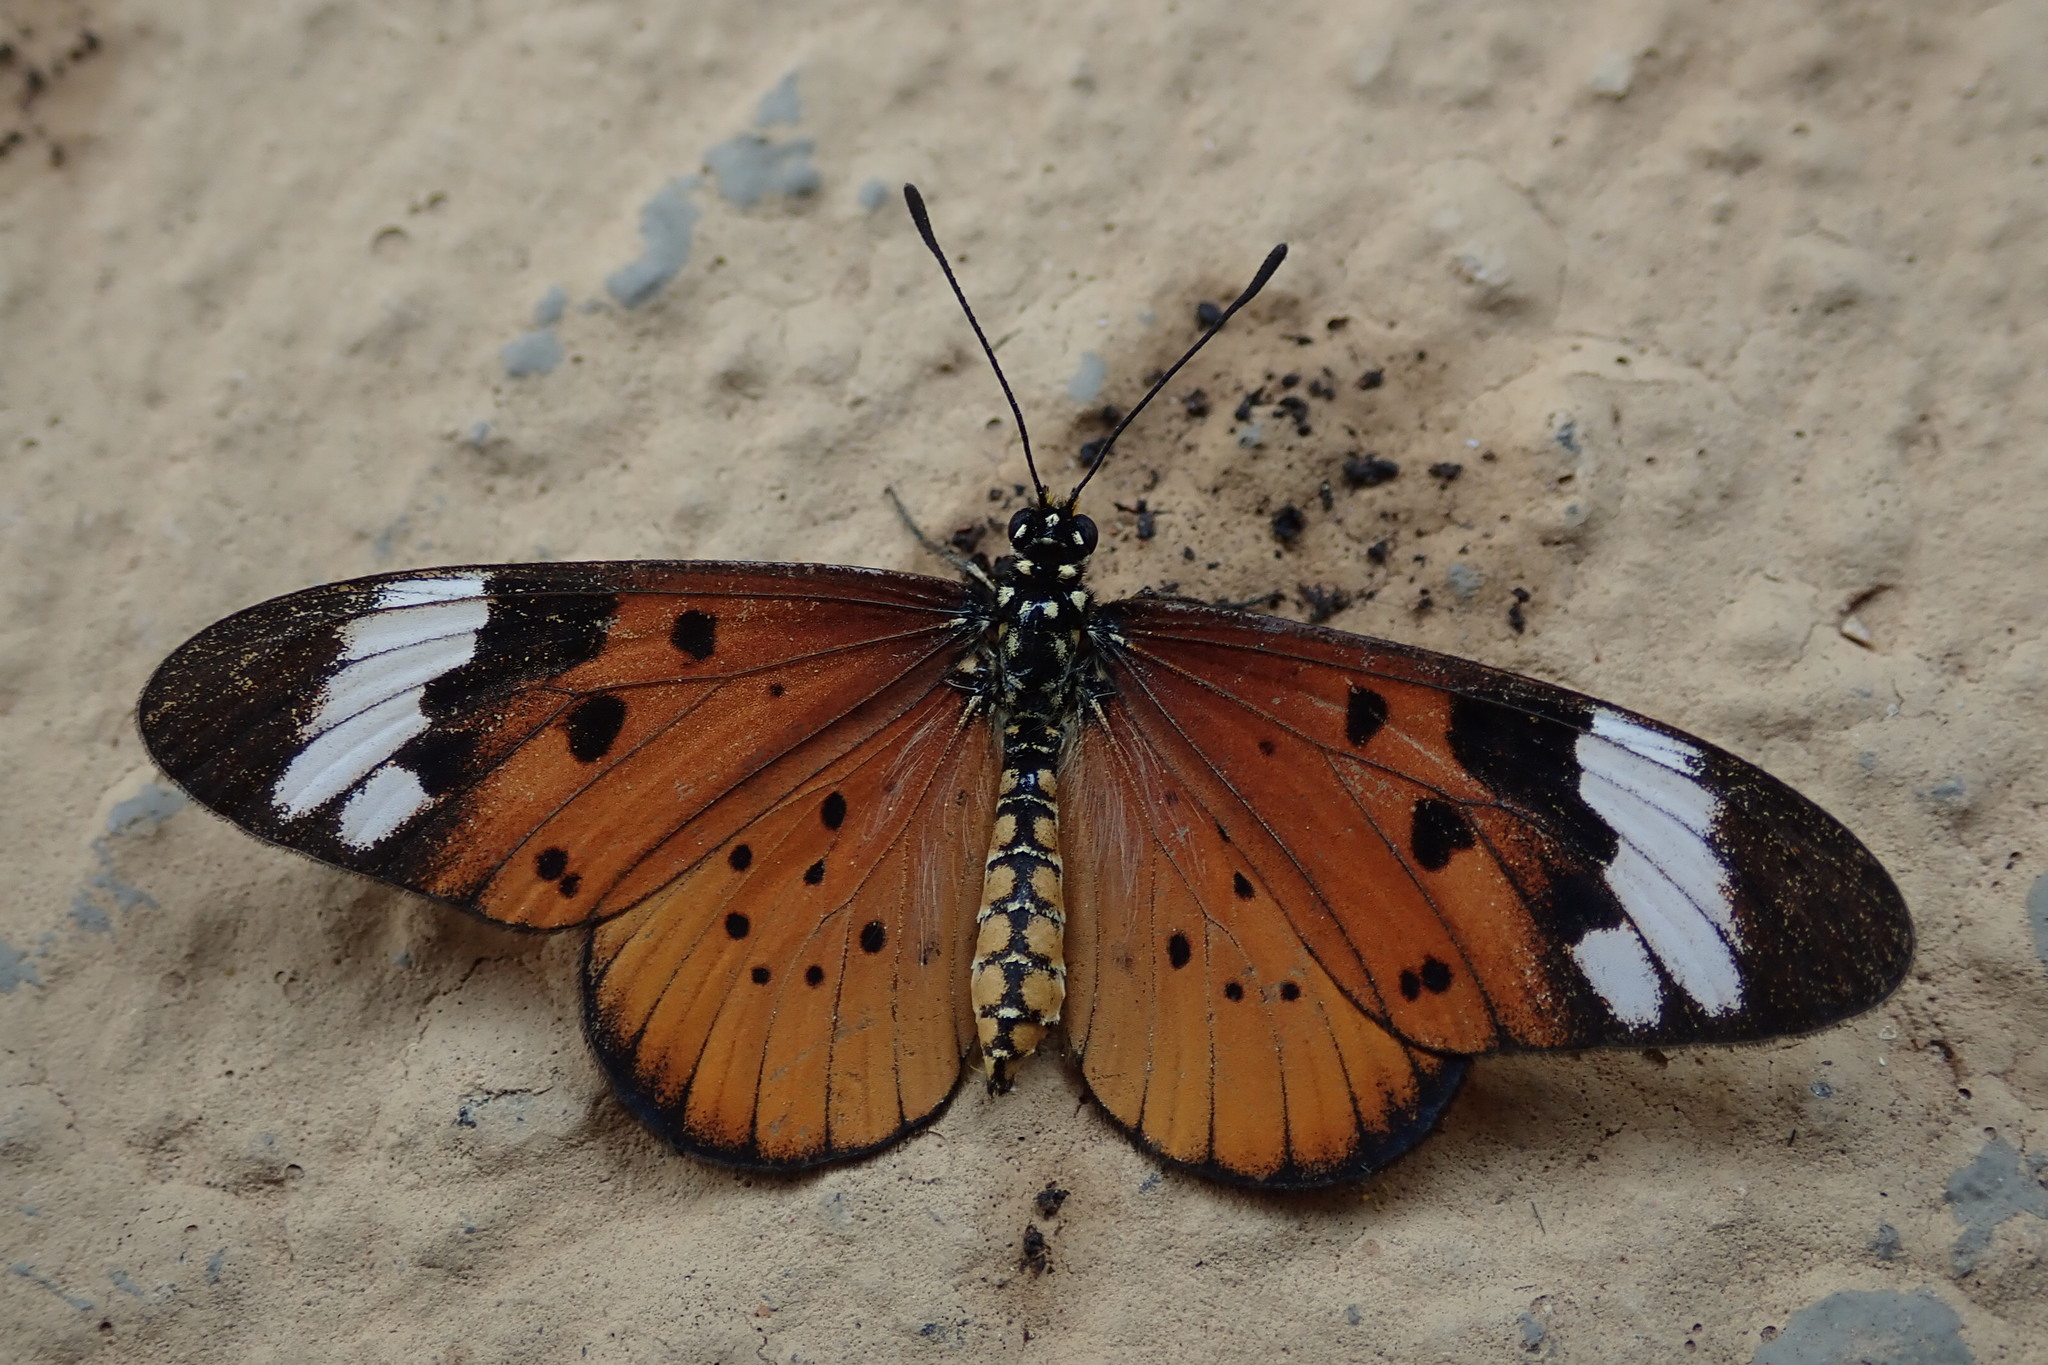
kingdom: Animalia
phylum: Arthropoda
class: Insecta
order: Lepidoptera
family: Nymphalidae
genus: Acraea
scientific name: Acraea Telchinia encedon
